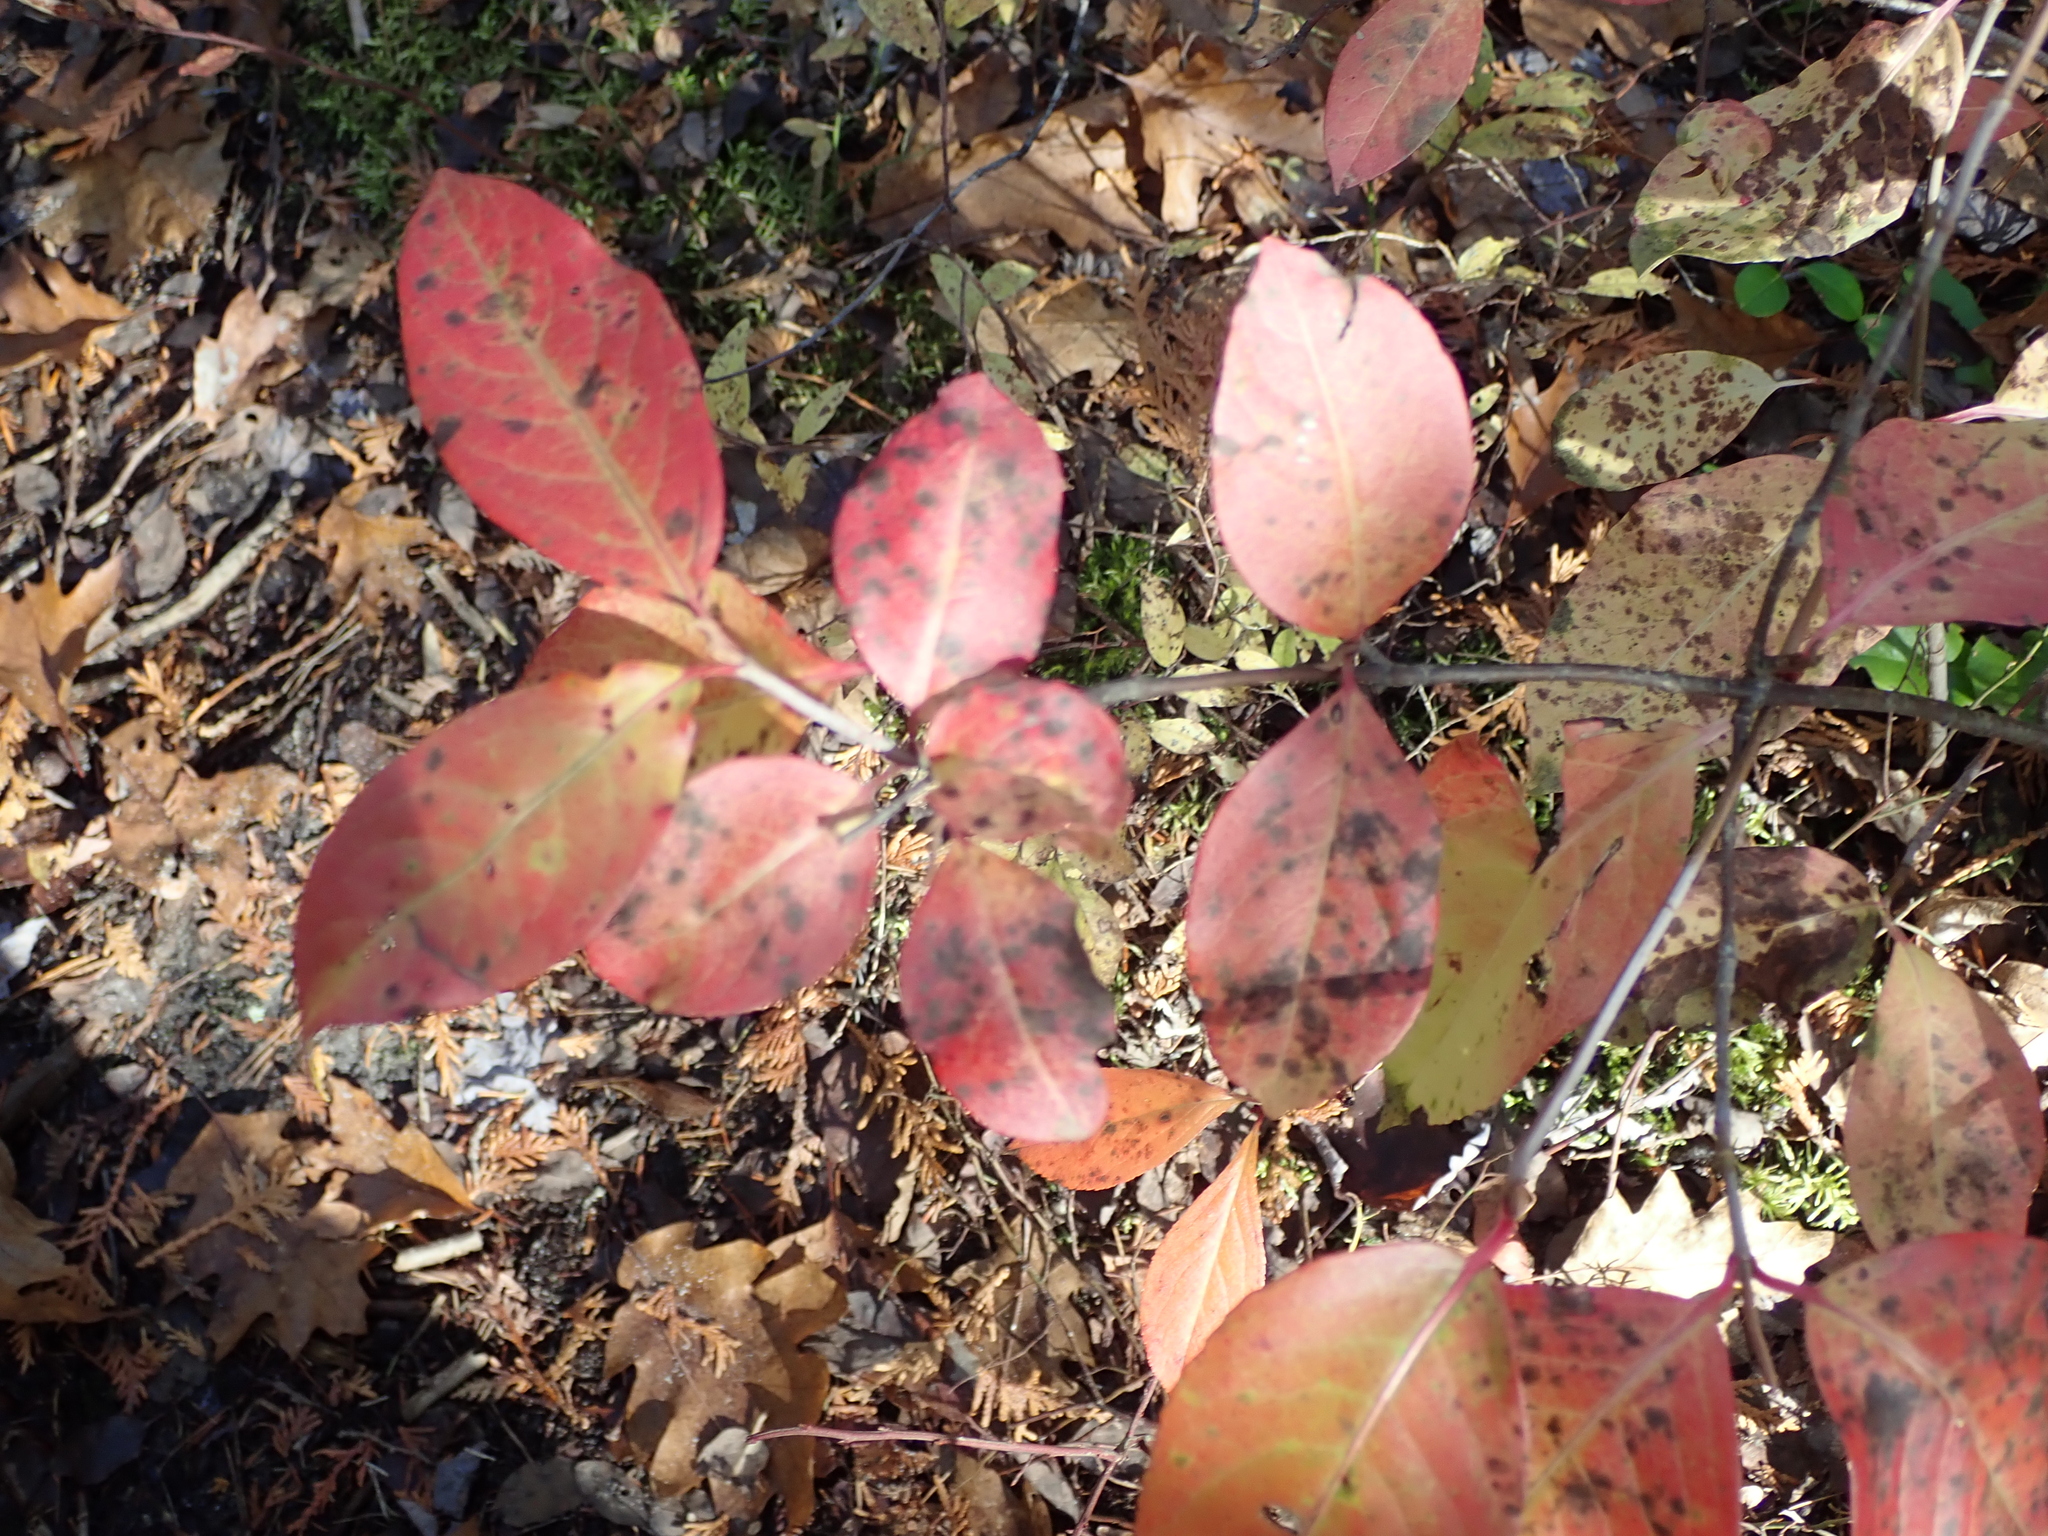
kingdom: Plantae
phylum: Tracheophyta
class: Magnoliopsida
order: Dipsacales
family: Viburnaceae
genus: Viburnum
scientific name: Viburnum cassinoides
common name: Swamp haw
